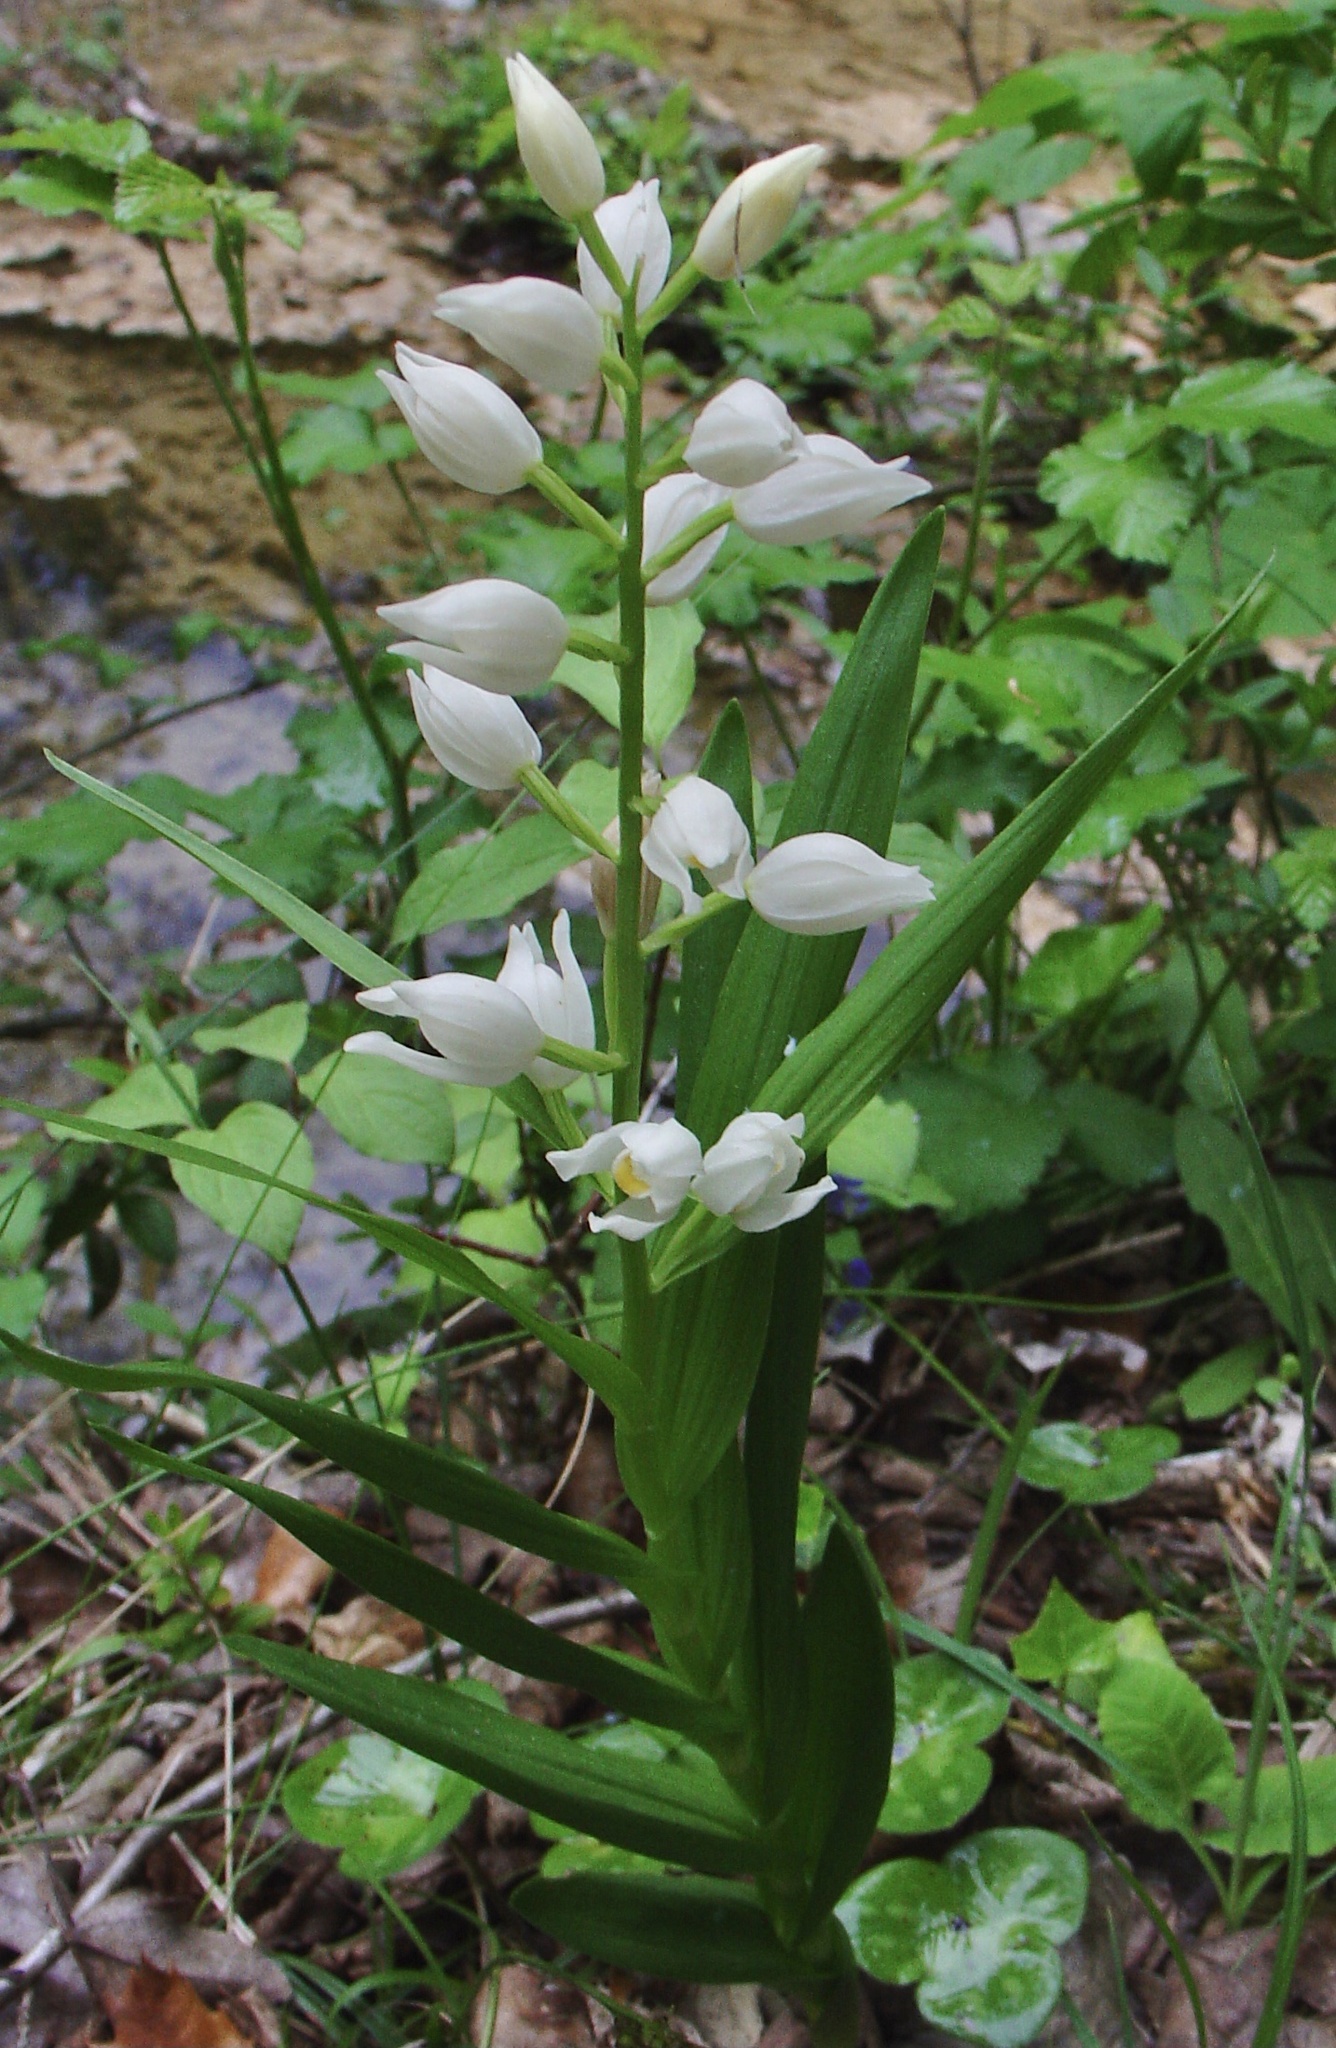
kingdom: Plantae
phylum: Tracheophyta
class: Liliopsida
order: Asparagales
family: Orchidaceae
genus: Cephalanthera
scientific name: Cephalanthera longifolia
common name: Narrow-leaved helleborine
